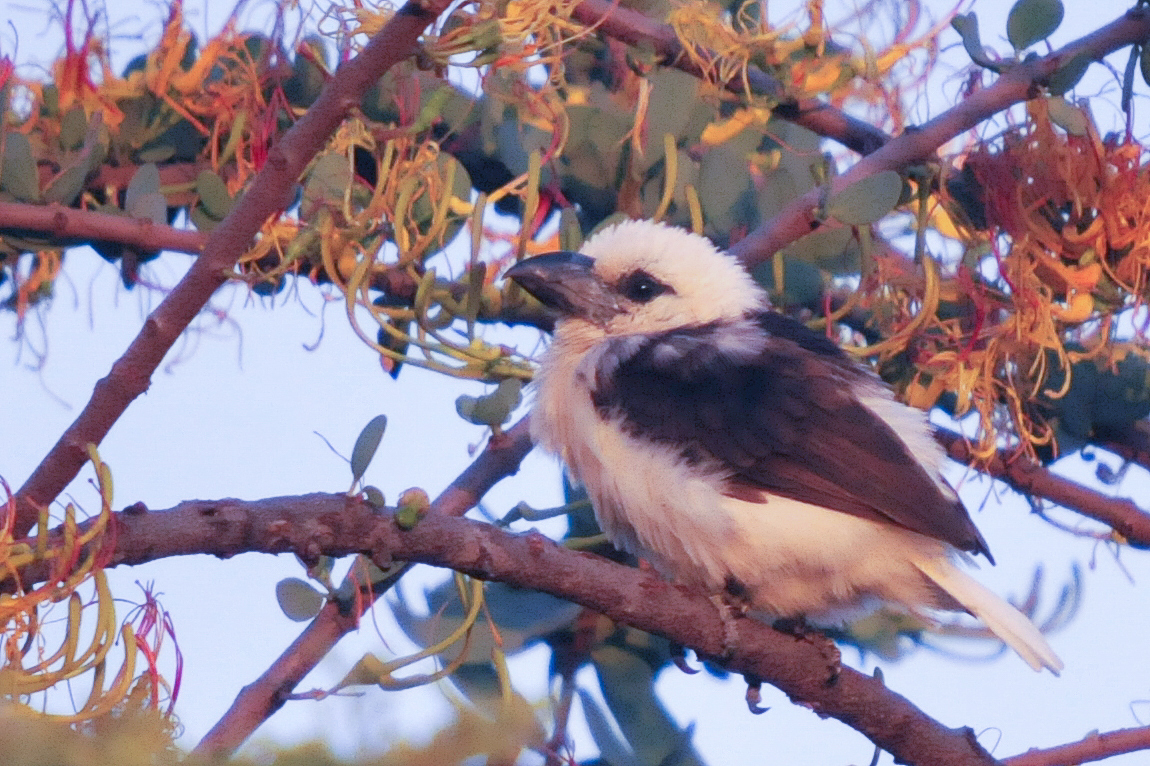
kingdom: Animalia
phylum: Chordata
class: Aves
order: Piciformes
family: Lybiidae
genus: Lybius
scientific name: Lybius leucocephalus
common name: White-headed barbet
